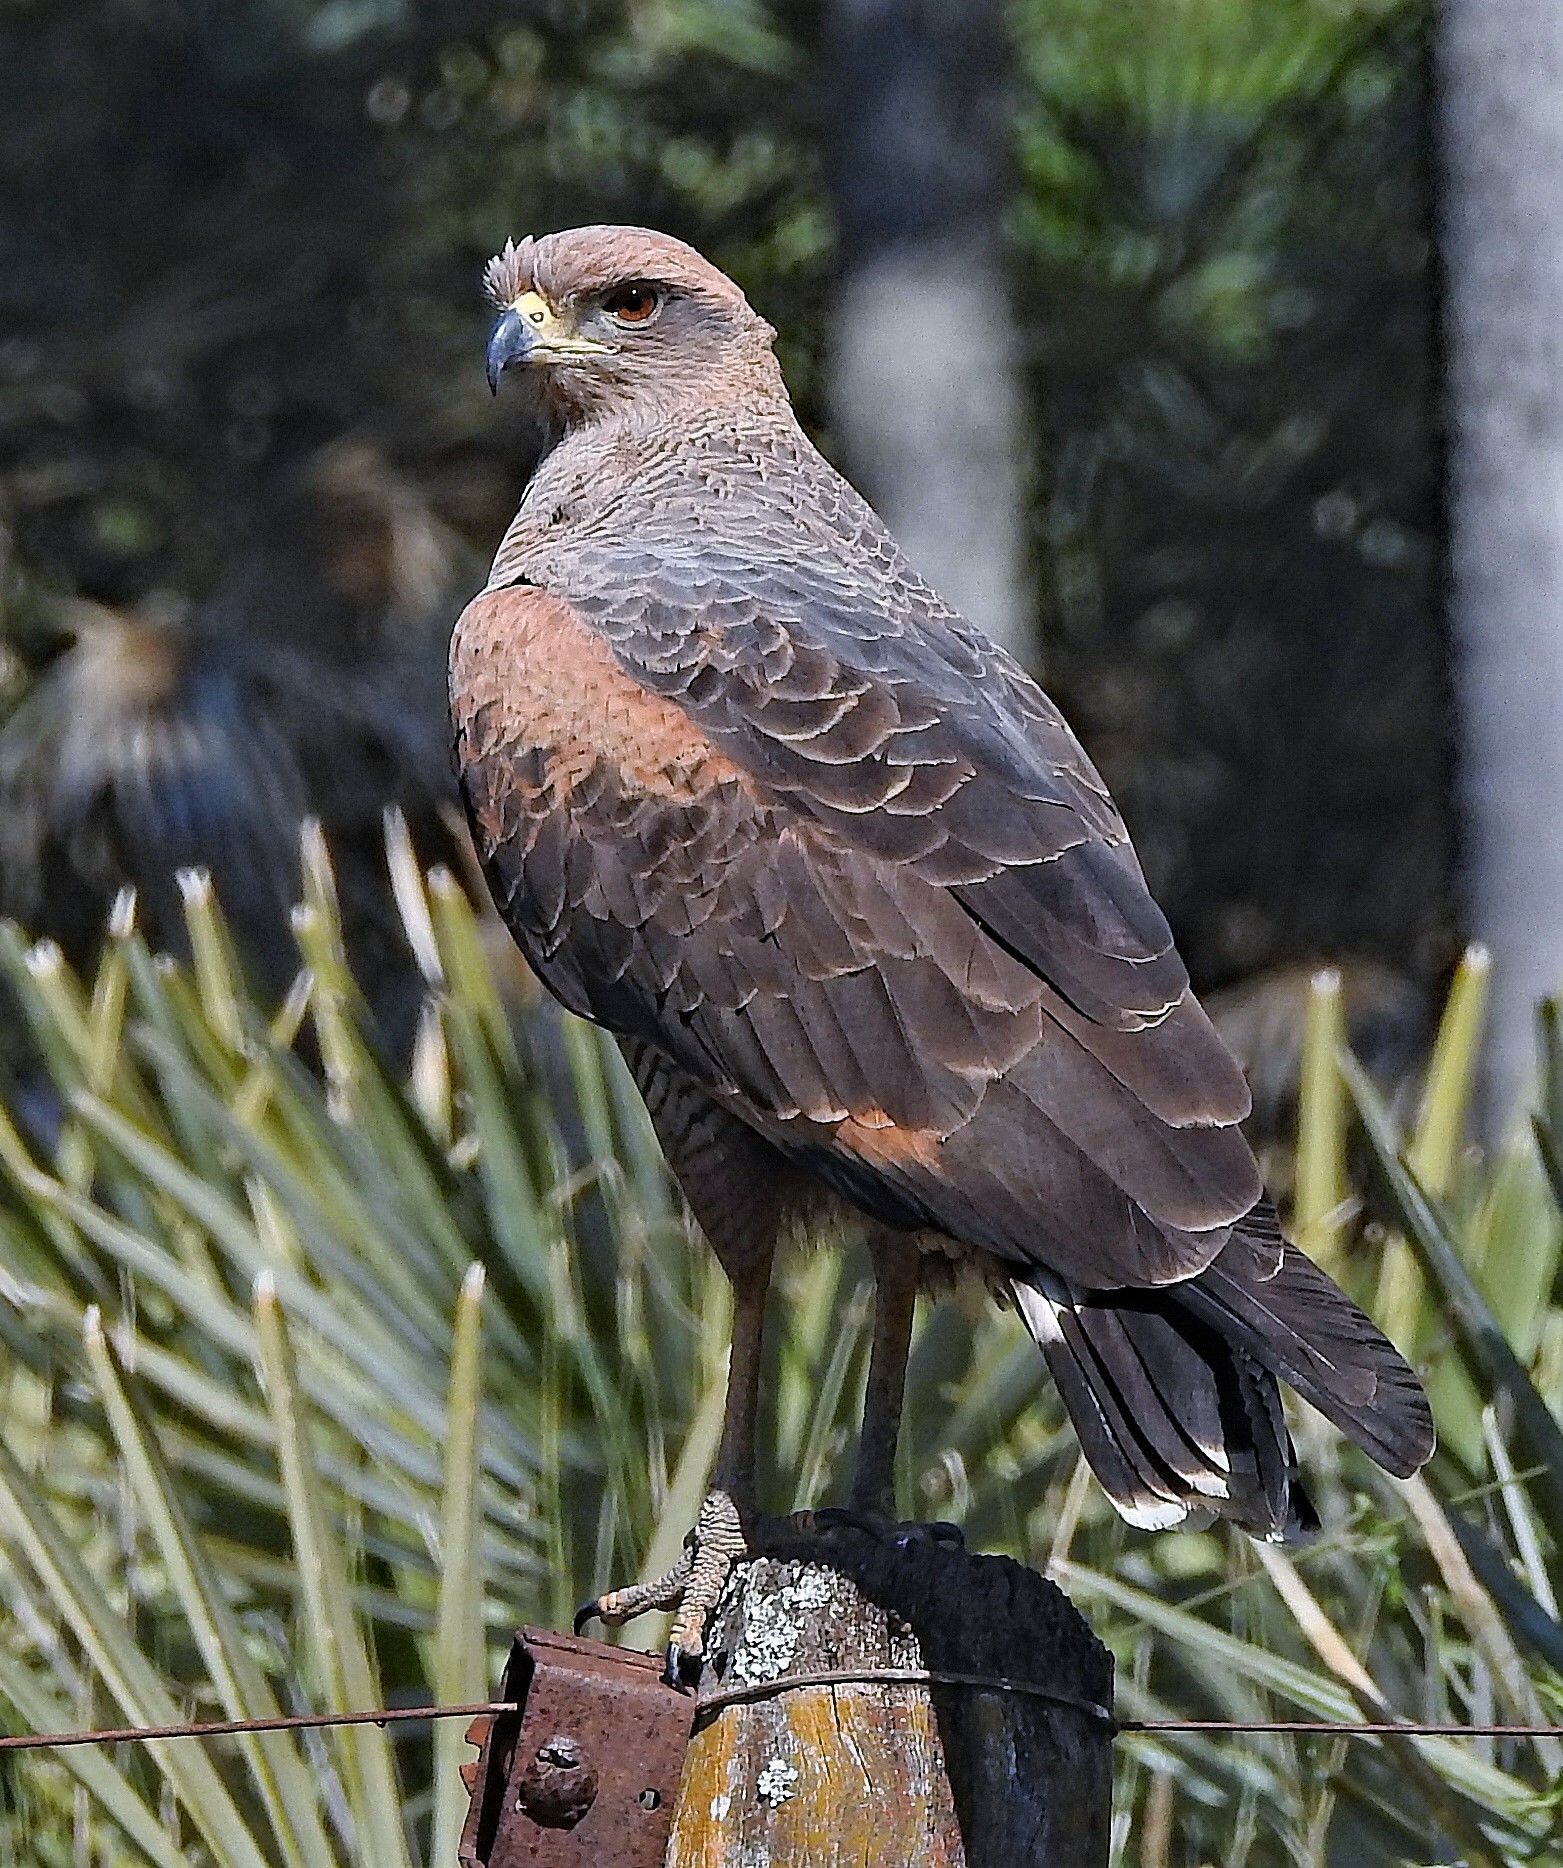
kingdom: Animalia
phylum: Chordata
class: Aves
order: Accipitriformes
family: Accipitridae
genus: Buteogallus
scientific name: Buteogallus meridionalis
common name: Savanna hawk
